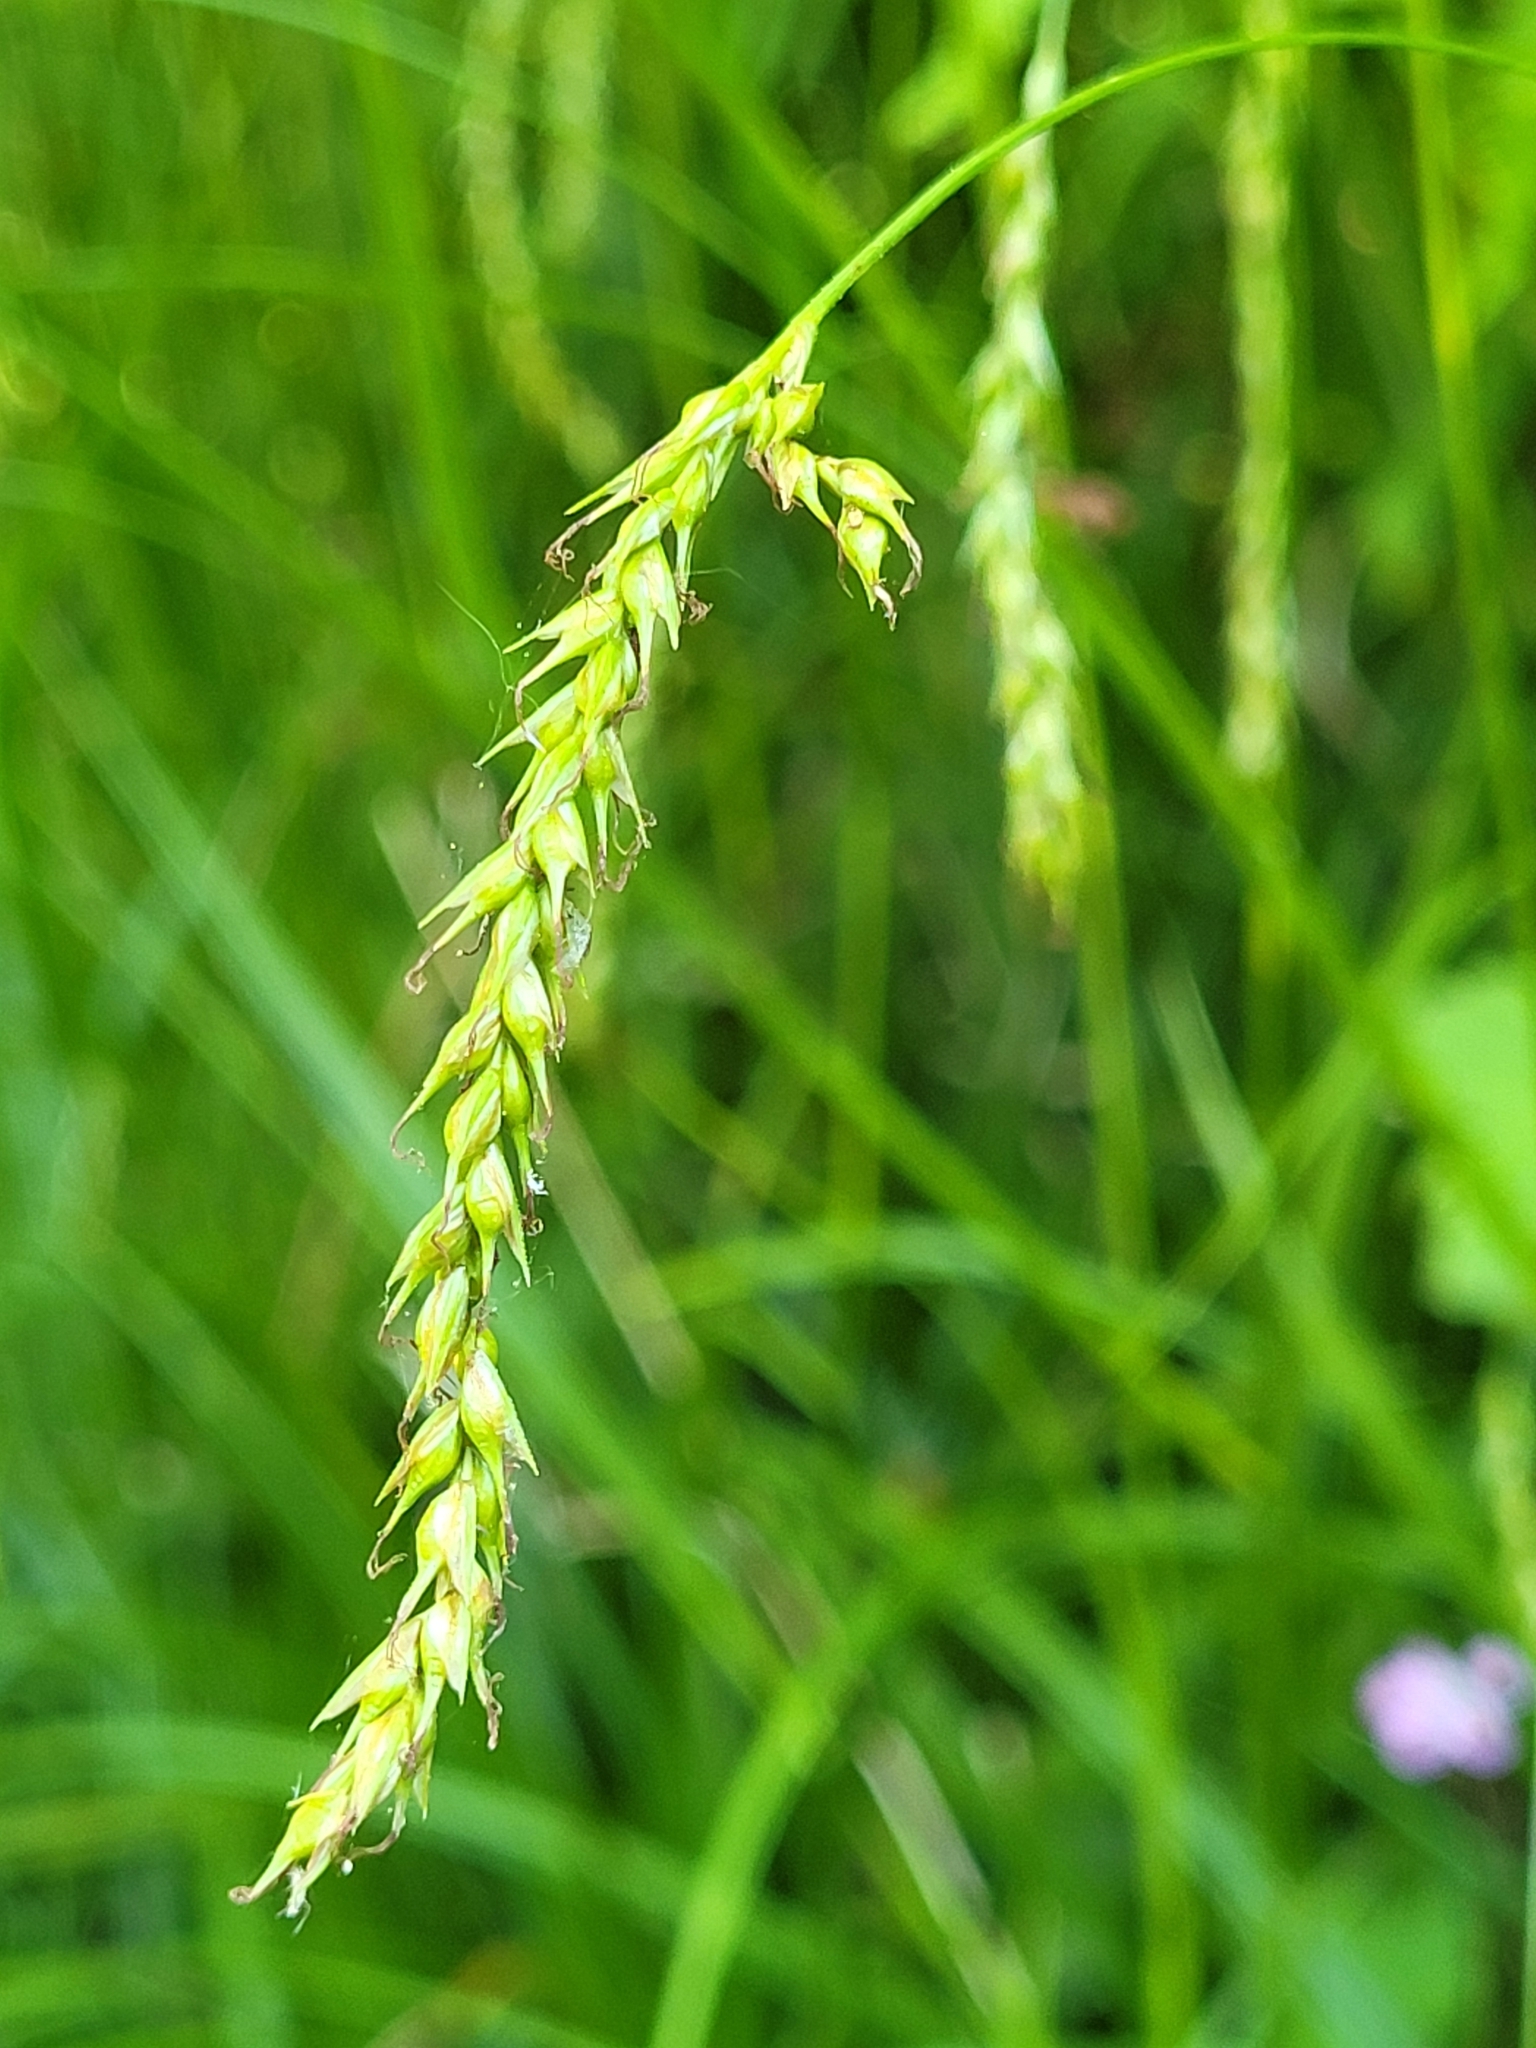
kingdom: Plantae
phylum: Tracheophyta
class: Liliopsida
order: Poales
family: Cyperaceae
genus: Carex
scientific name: Carex sylvatica
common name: Wood-sedge
